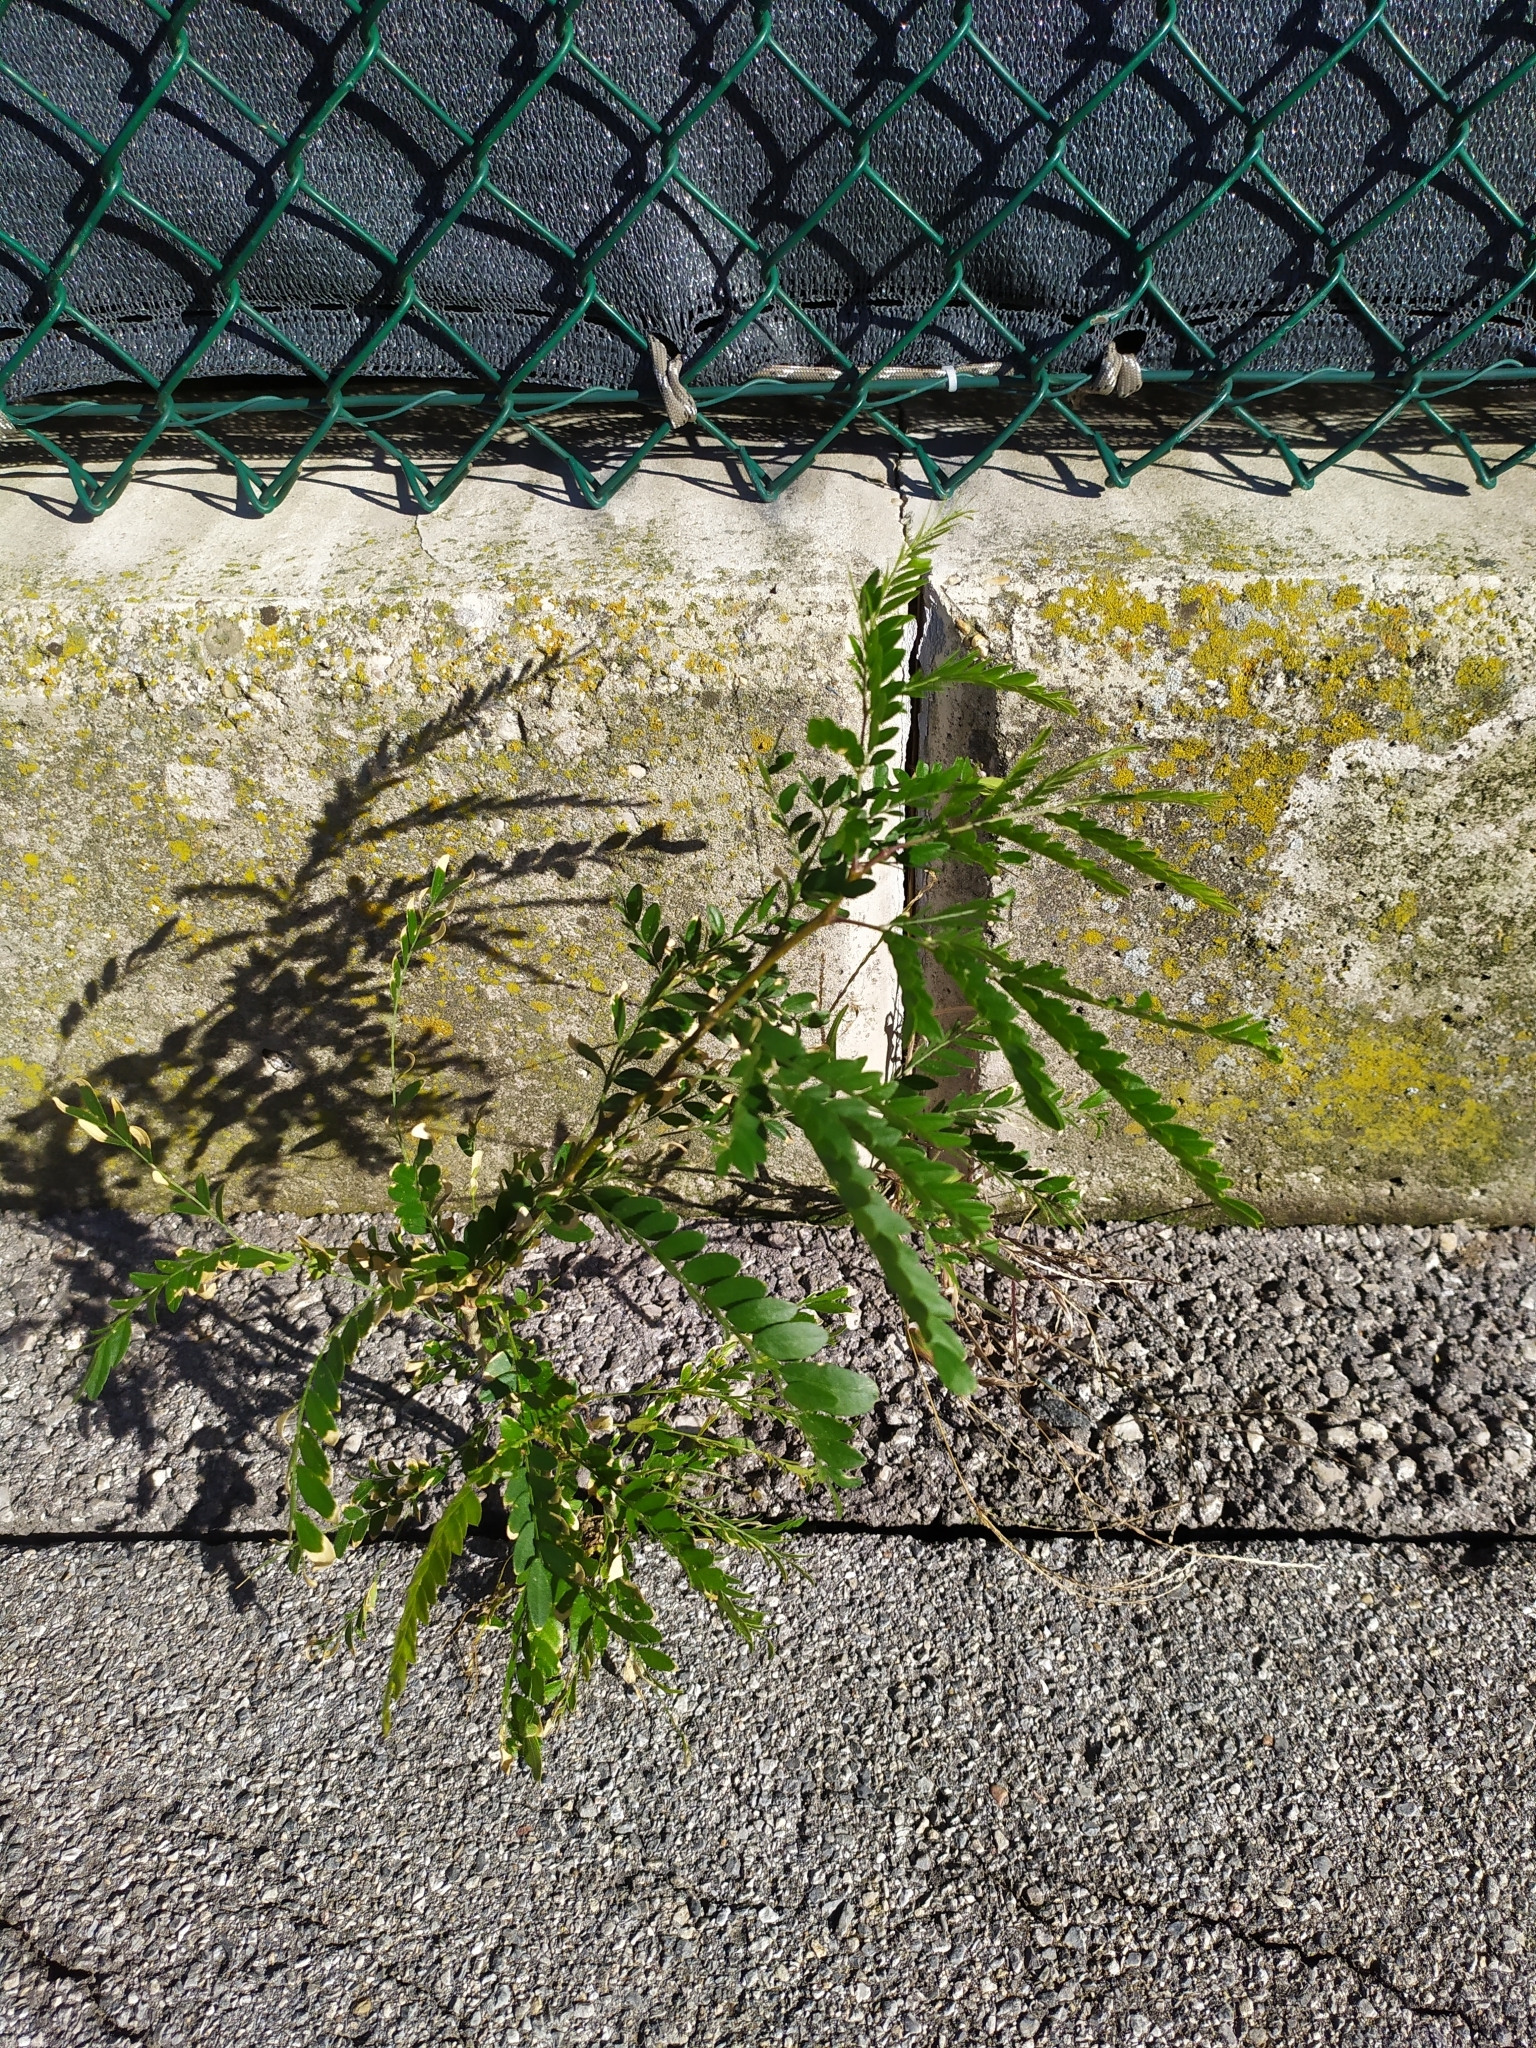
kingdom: Plantae
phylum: Tracheophyta
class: Magnoliopsida
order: Fabales
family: Fabaceae
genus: Gleditsia
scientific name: Gleditsia triacanthos
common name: Common honeylocust
